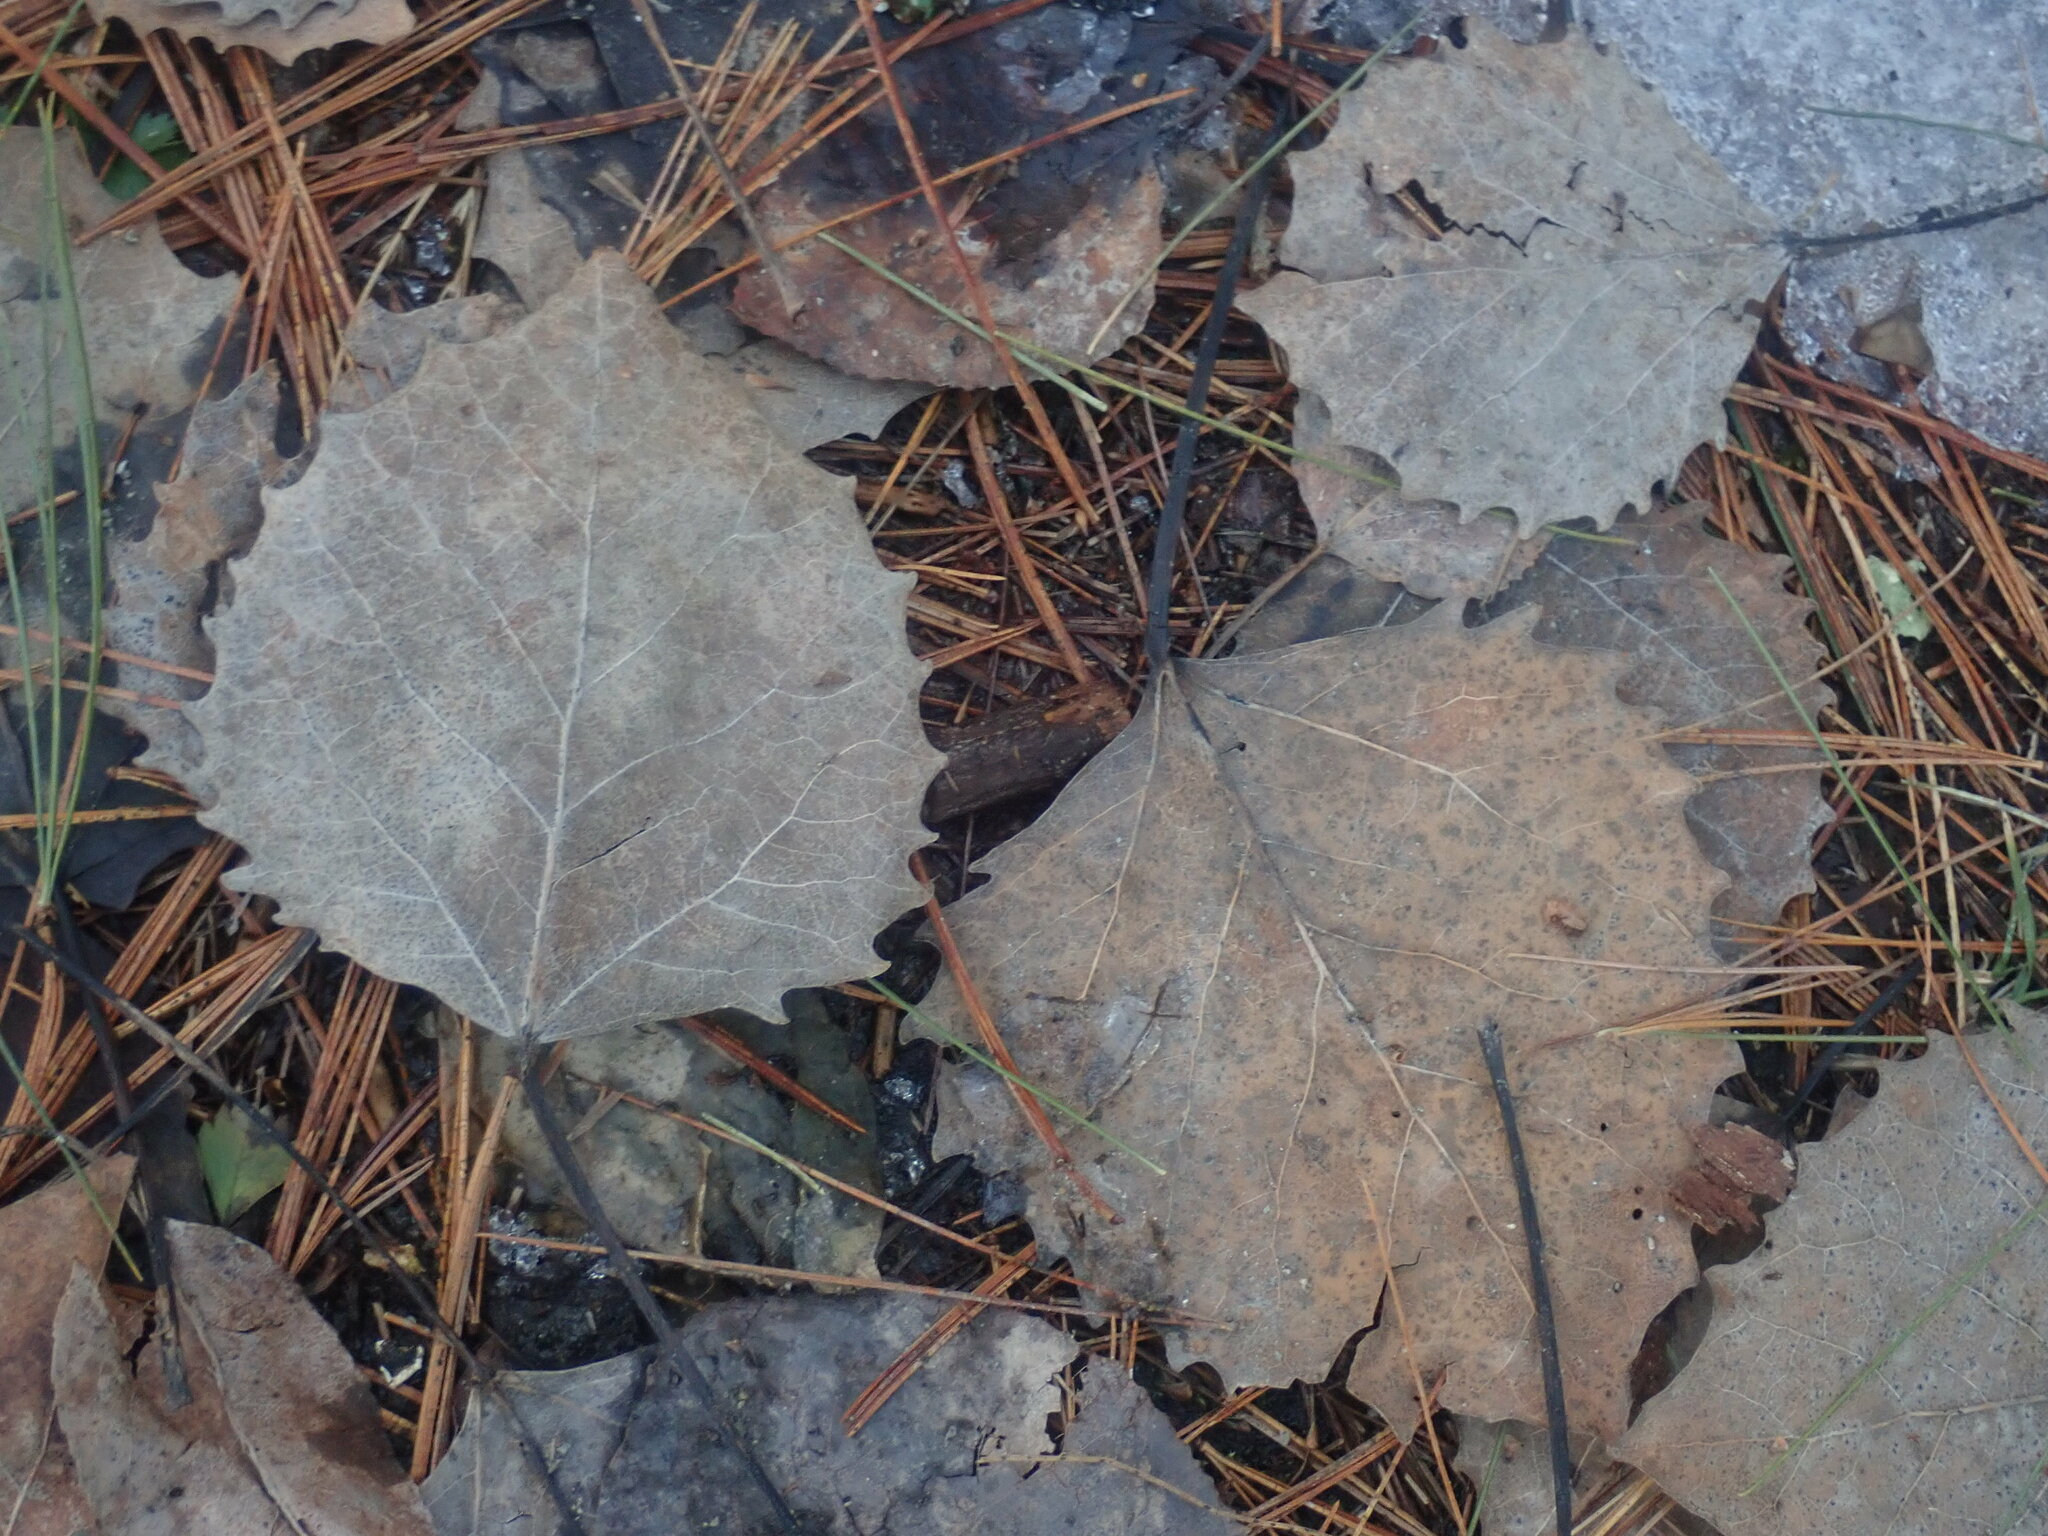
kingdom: Plantae
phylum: Tracheophyta
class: Magnoliopsida
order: Malpighiales
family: Salicaceae
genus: Populus
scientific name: Populus grandidentata
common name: Bigtooth aspen
